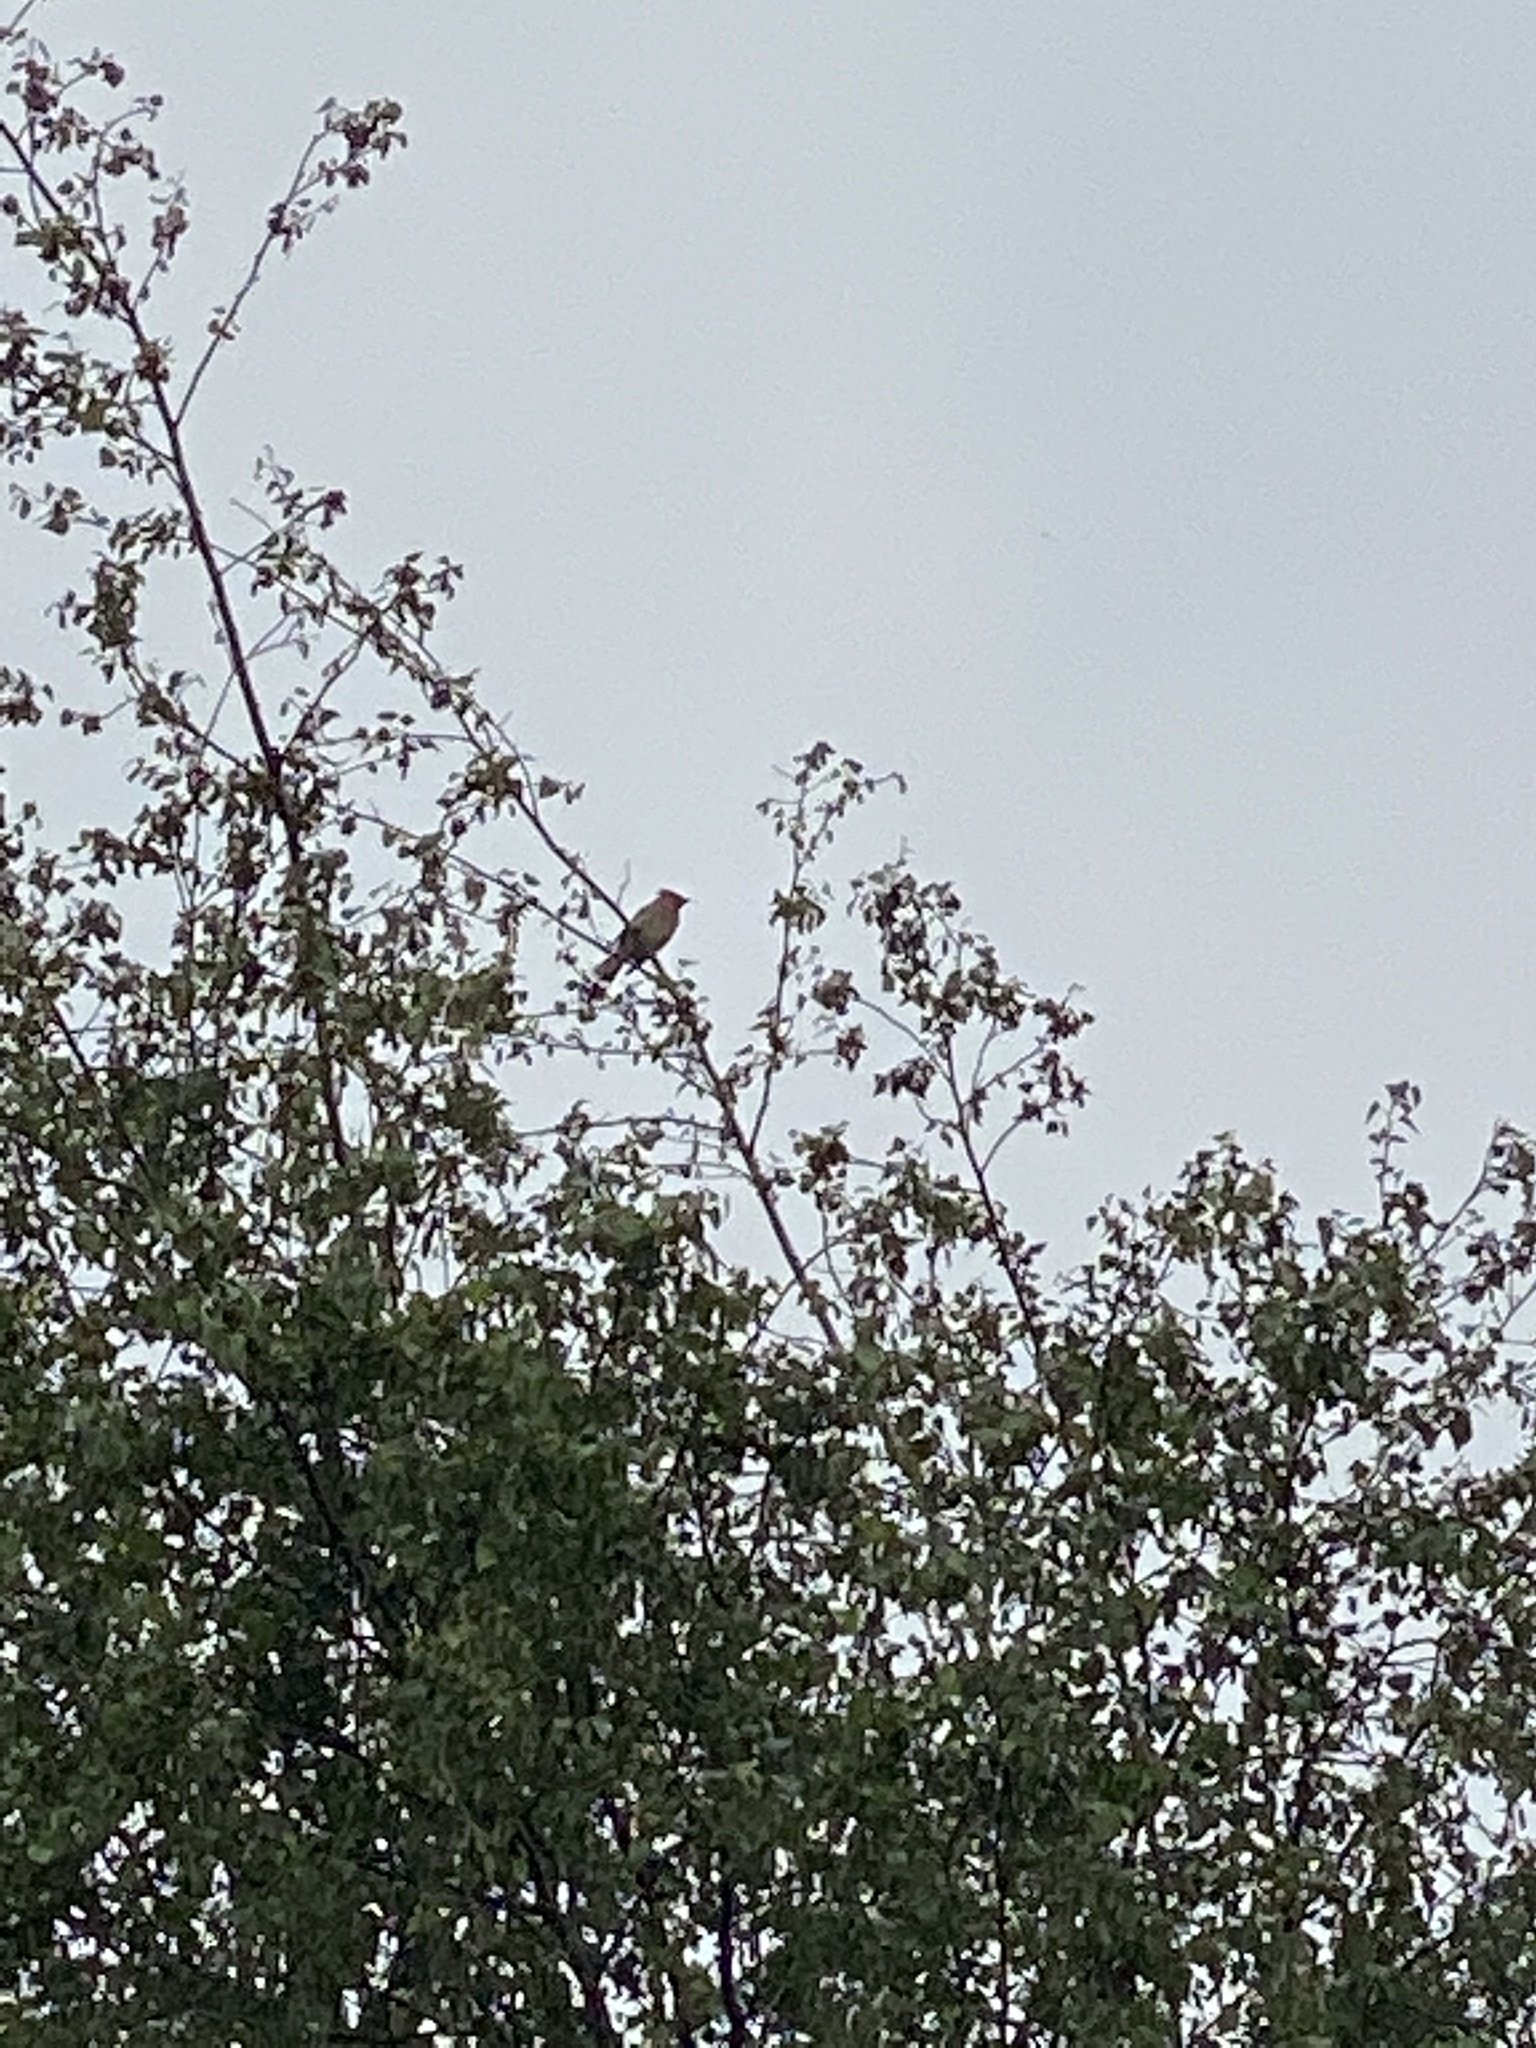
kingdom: Animalia
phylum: Chordata
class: Aves
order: Passeriformes
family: Bombycillidae
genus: Bombycilla
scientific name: Bombycilla cedrorum
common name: Cedar waxwing
